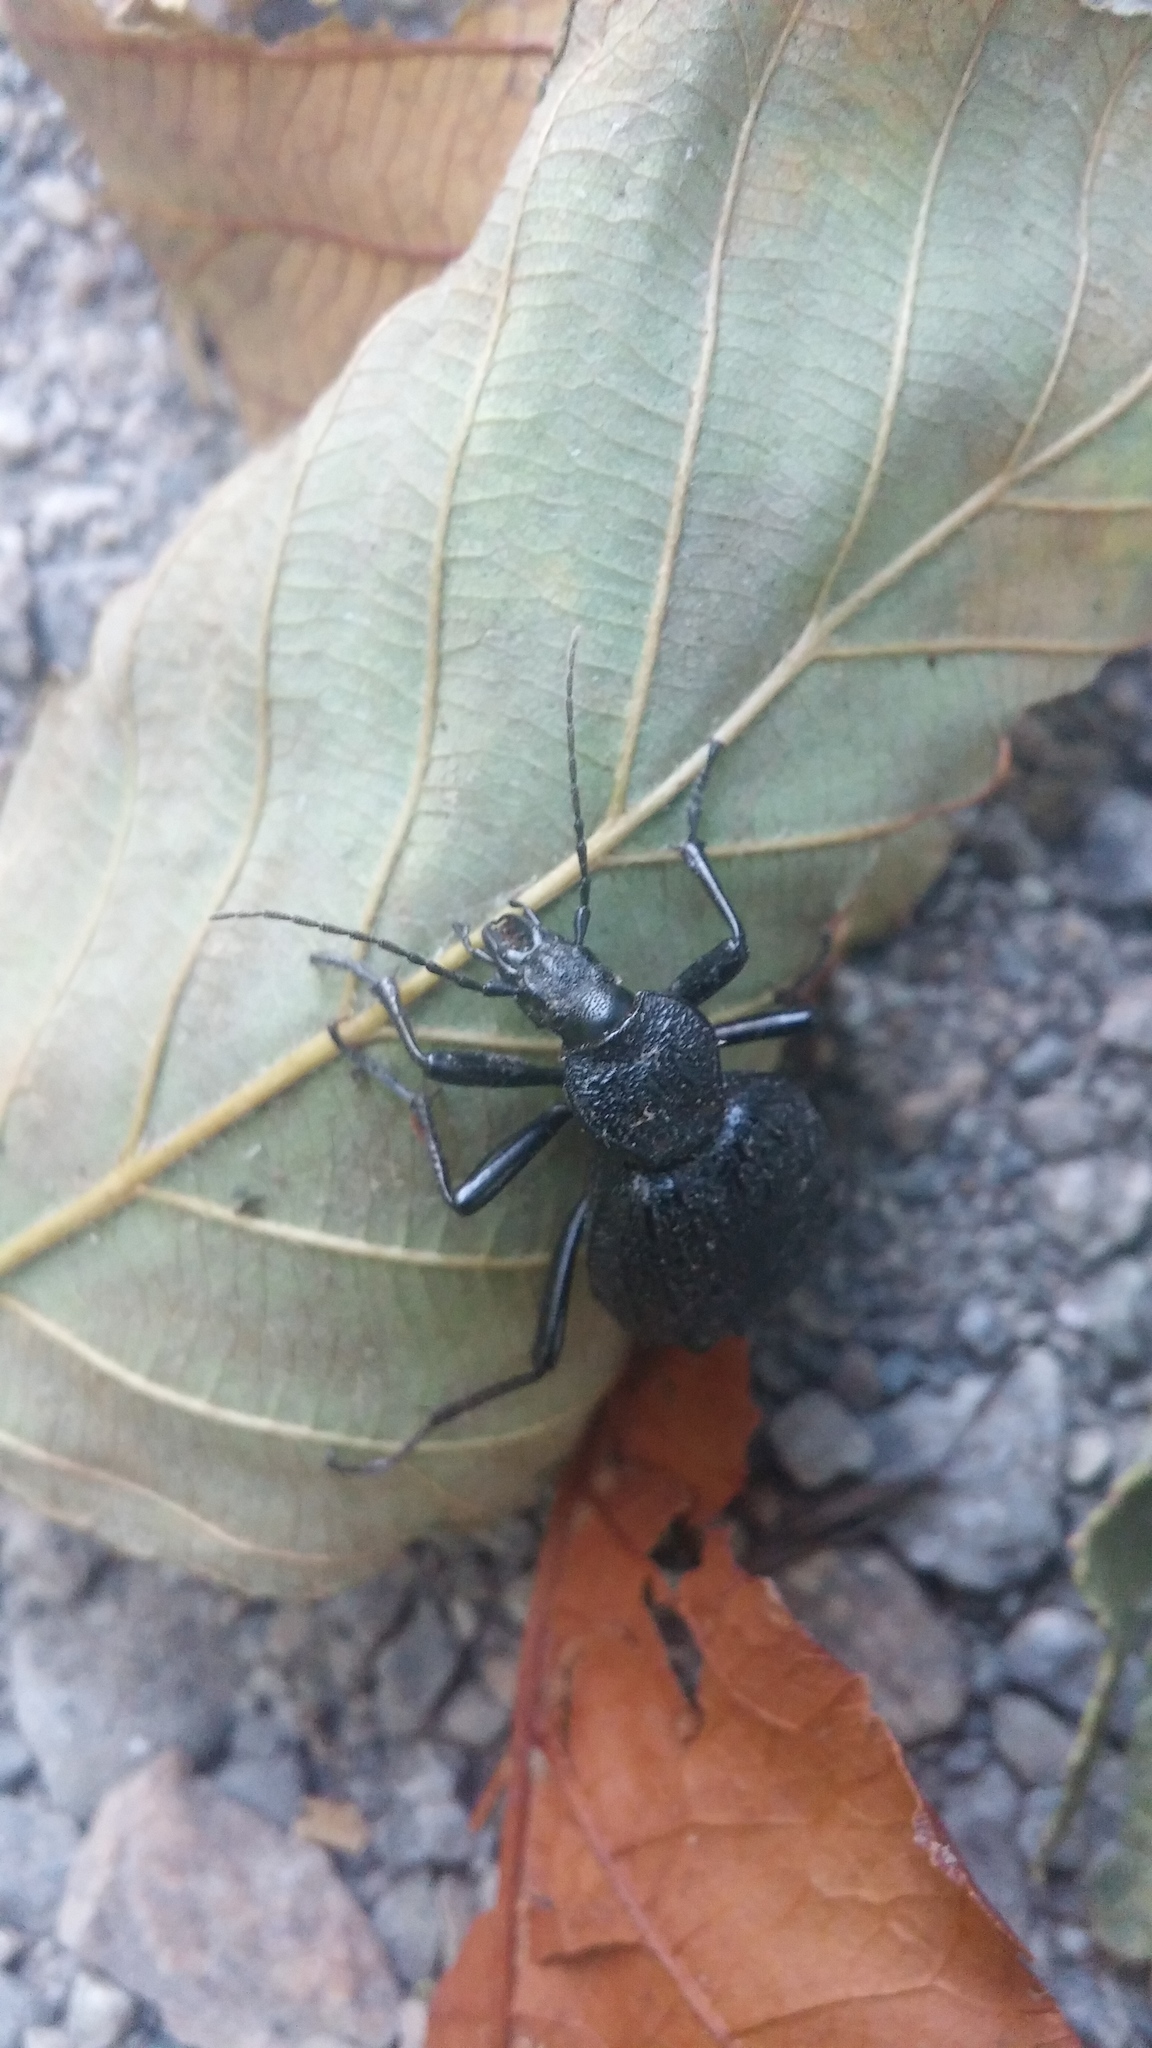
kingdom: Animalia
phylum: Arthropoda
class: Insecta
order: Coleoptera
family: Carabidae
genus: Cychrus
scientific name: Cychrus tuberculatus
